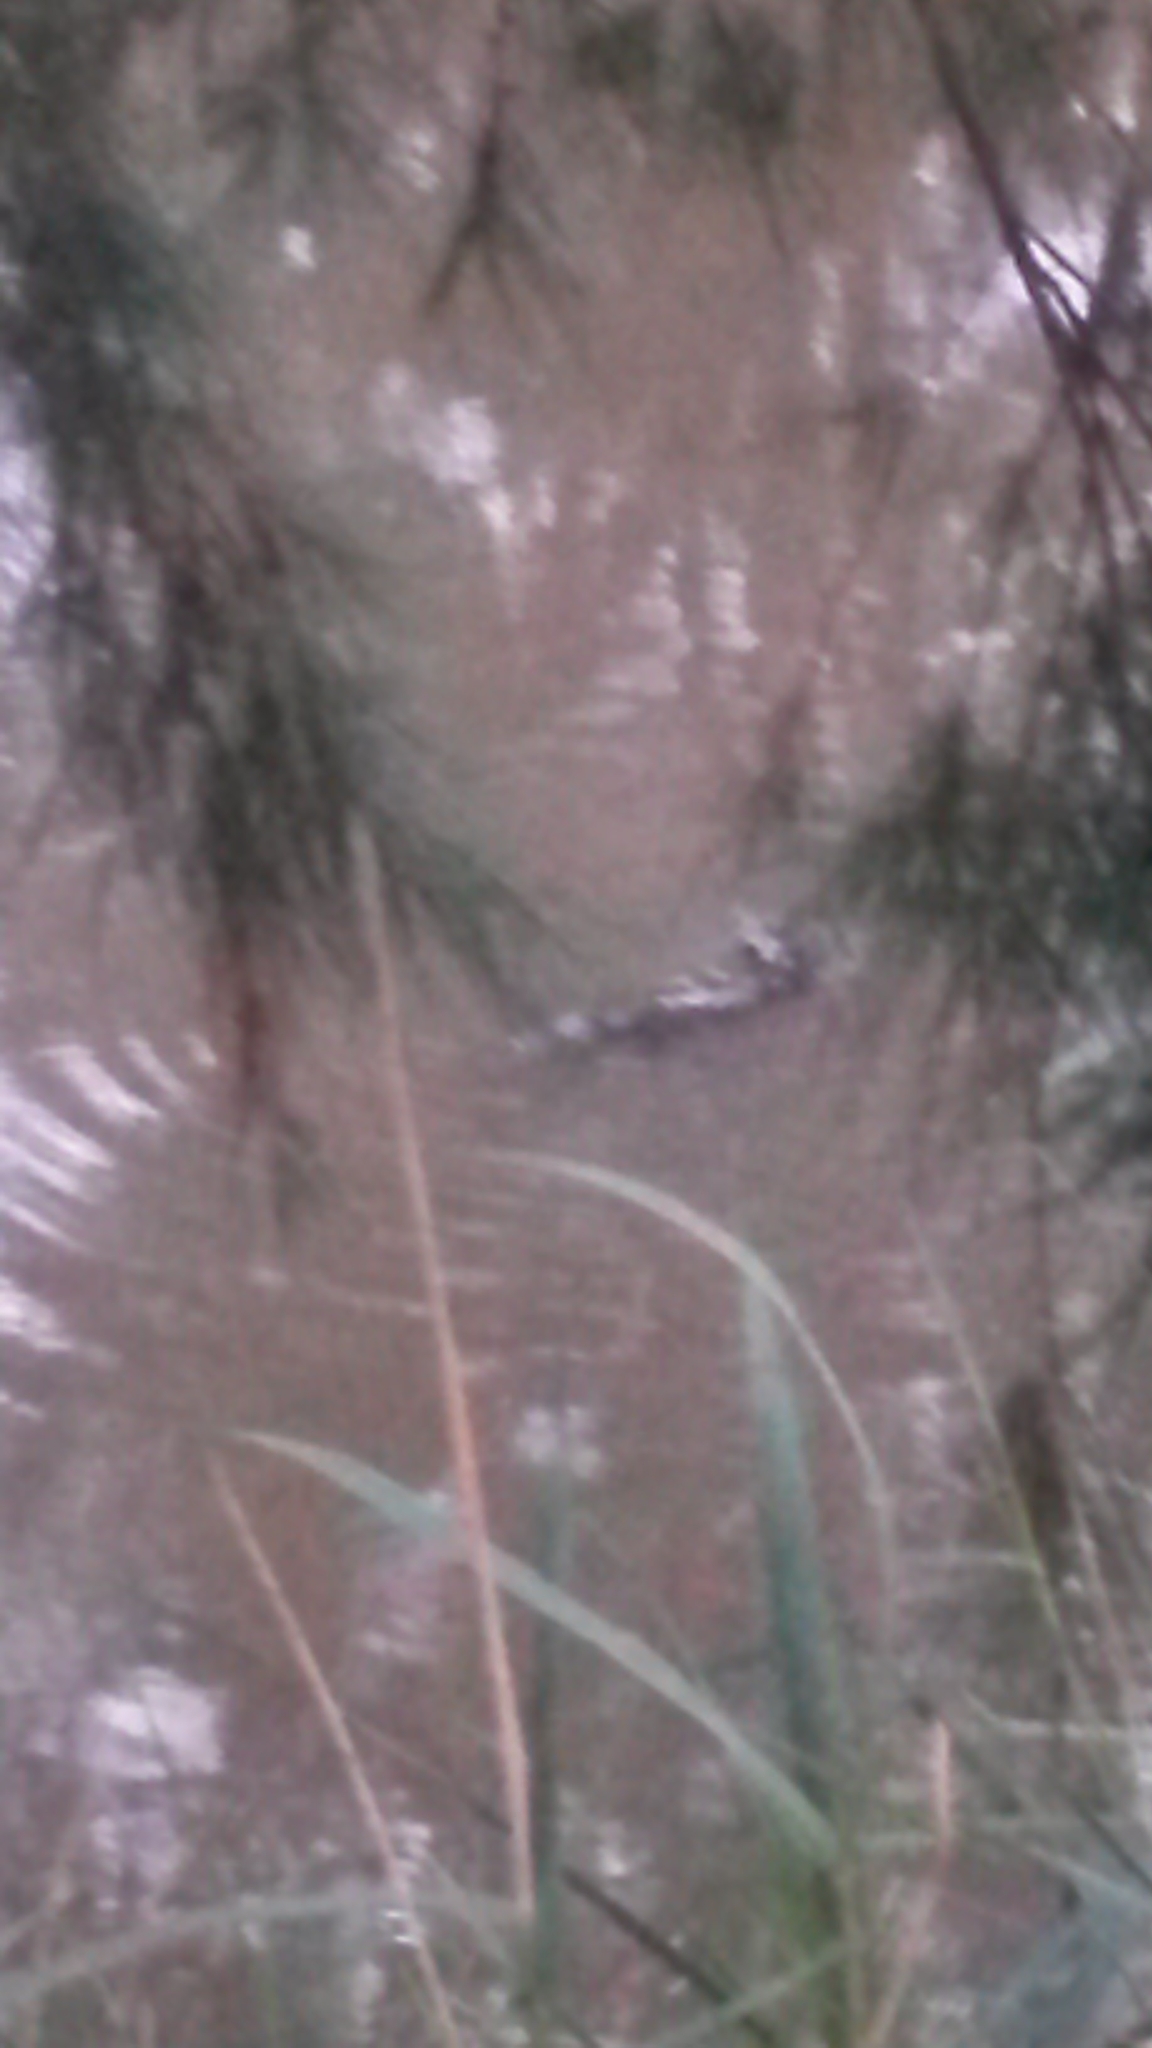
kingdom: Animalia
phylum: Chordata
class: Mammalia
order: Monotremata
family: Ornithorhynchidae
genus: Ornithorhynchus
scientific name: Ornithorhynchus anatinus
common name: Platypus
